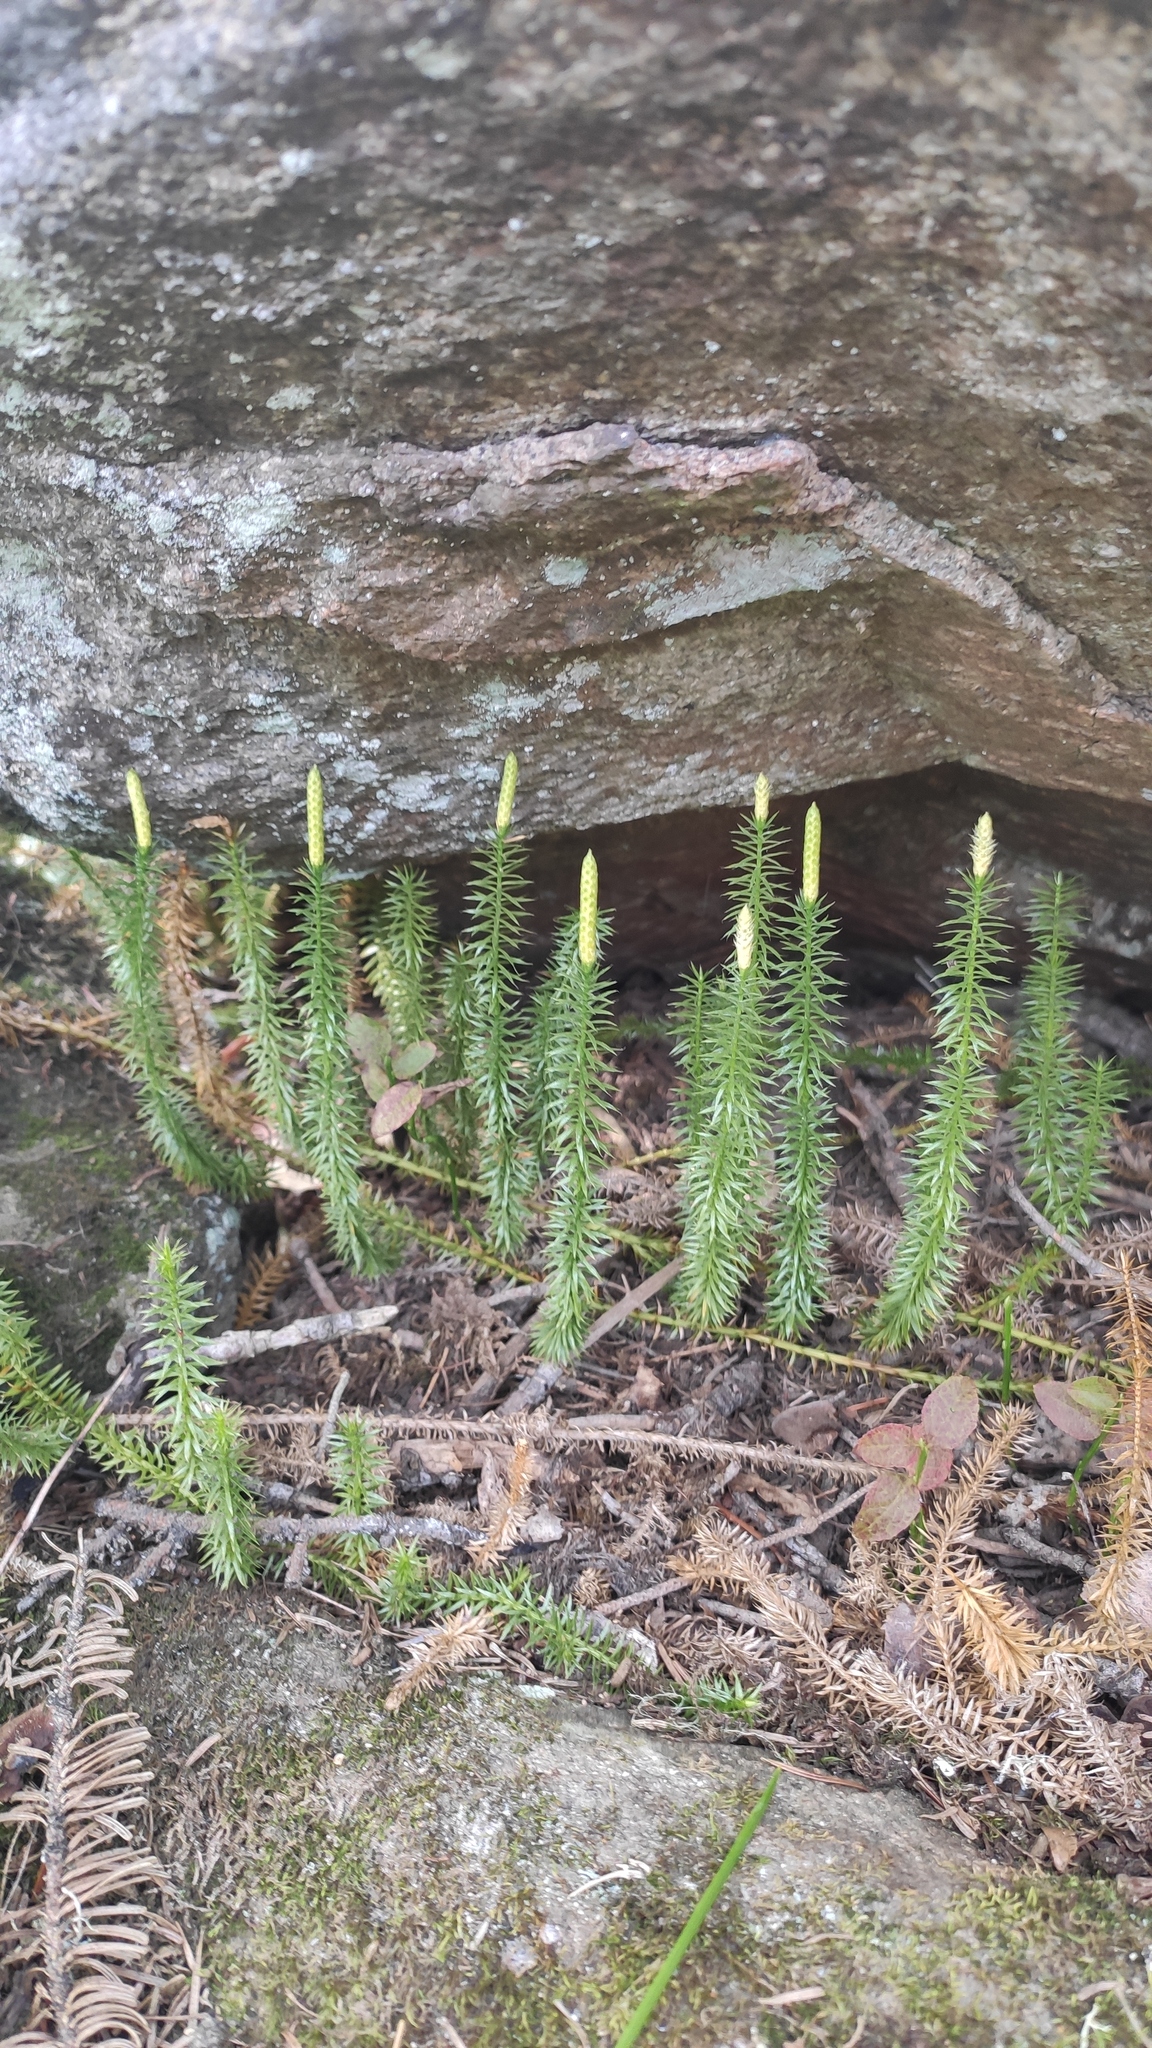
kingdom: Plantae
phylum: Tracheophyta
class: Lycopodiopsida
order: Lycopodiales
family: Lycopodiaceae
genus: Spinulum
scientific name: Spinulum annotinum
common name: Interrupted club-moss
